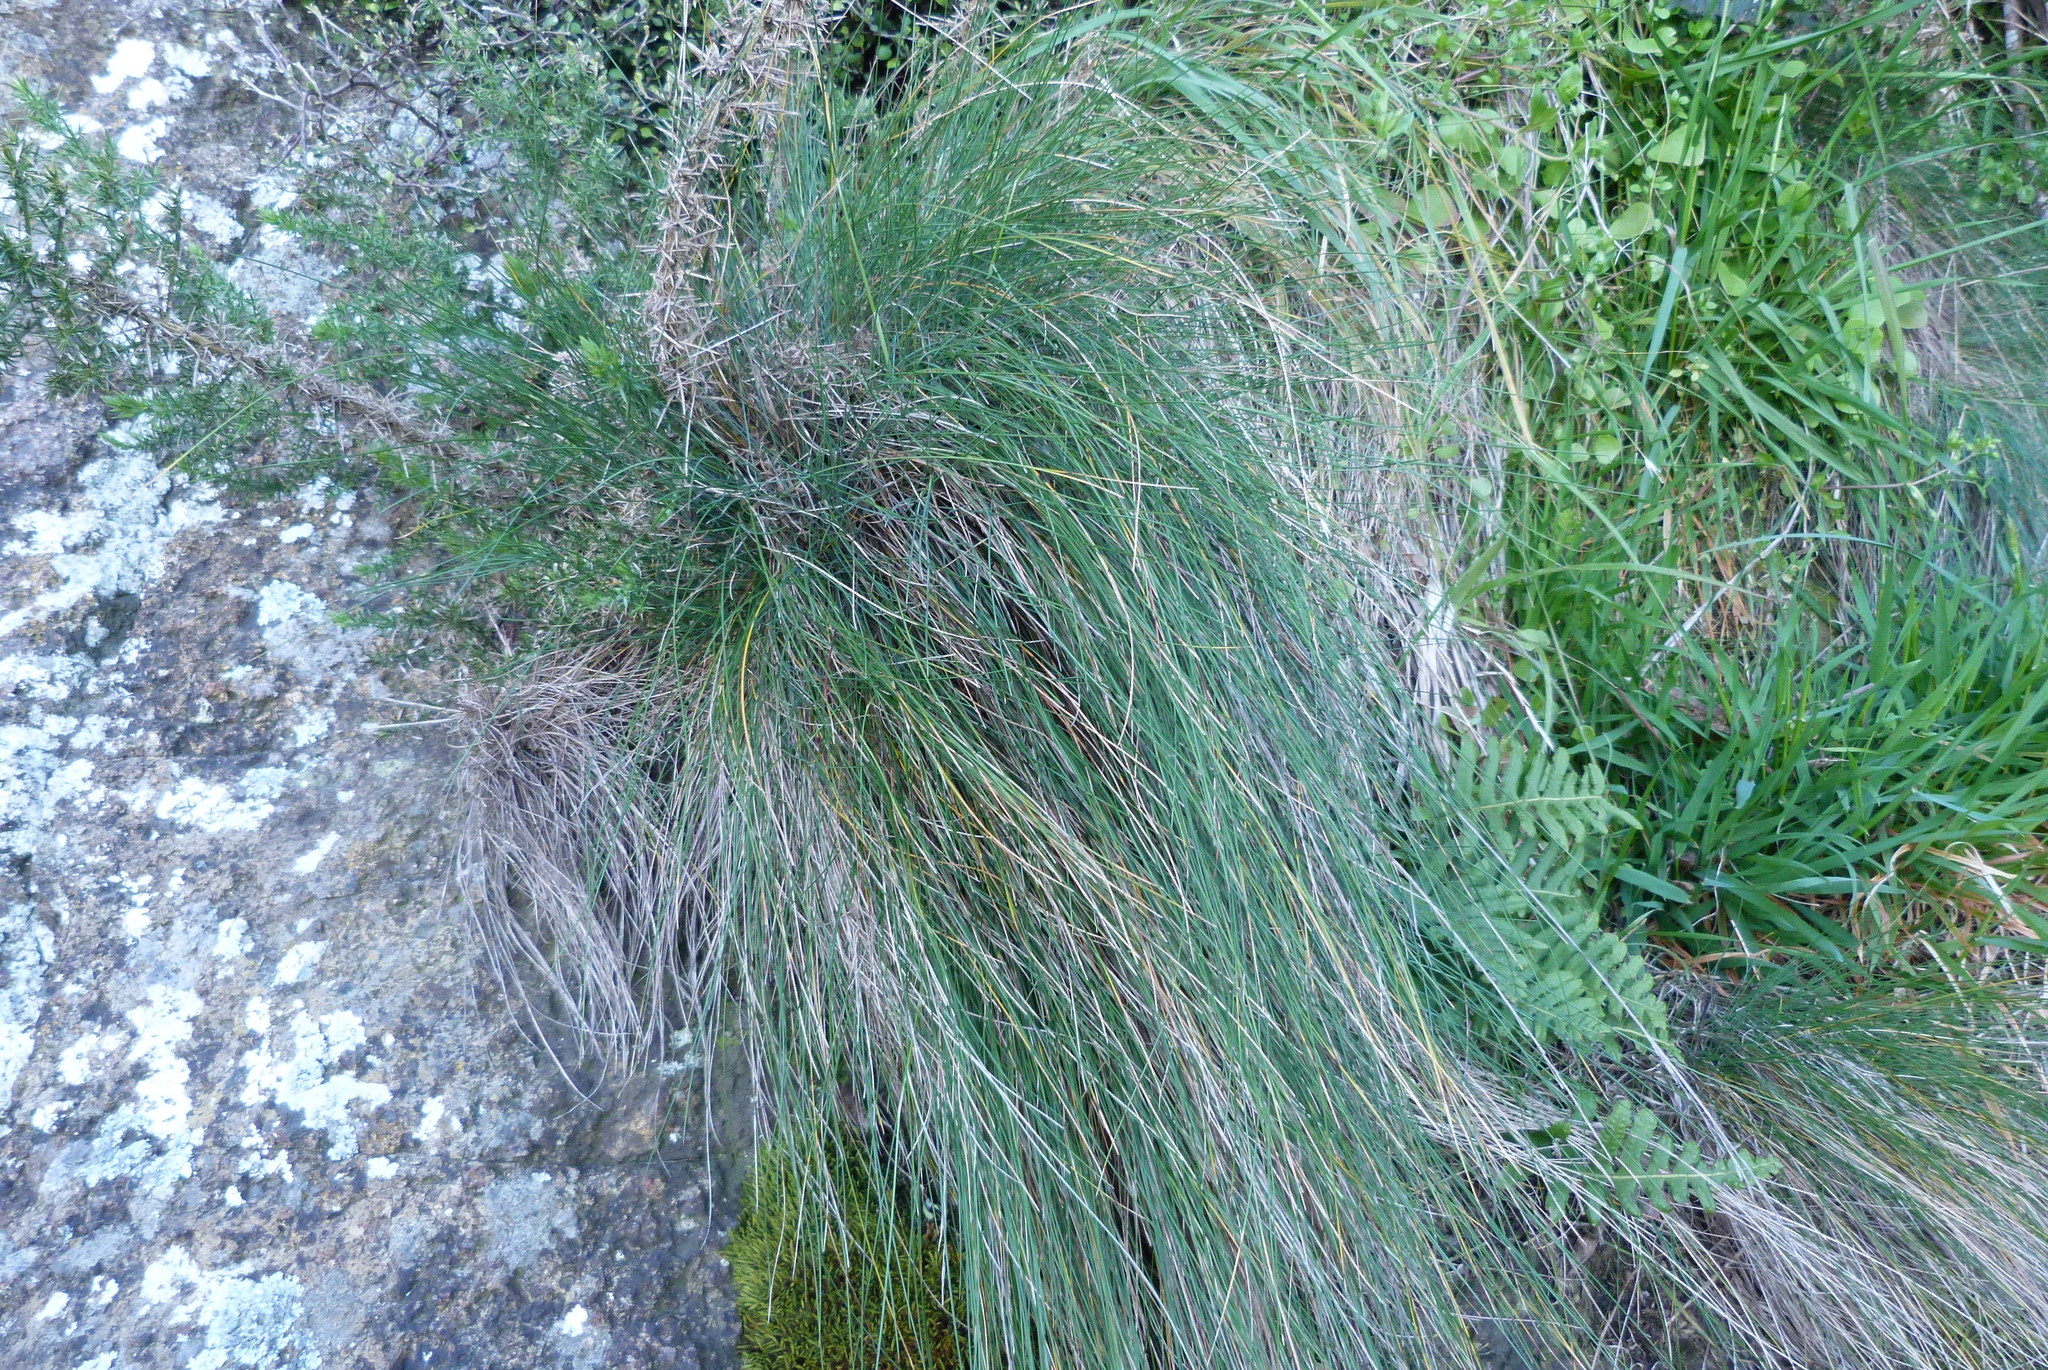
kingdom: Plantae
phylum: Tracheophyta
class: Liliopsida
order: Poales
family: Poaceae
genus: Festuca
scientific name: Festuca actae
